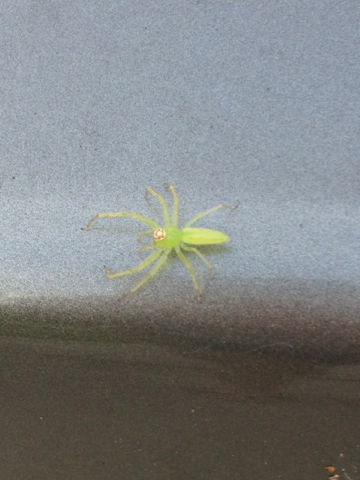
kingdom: Animalia
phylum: Arthropoda
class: Arachnida
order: Araneae
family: Salticidae
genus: Lyssomanes
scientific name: Lyssomanes viridis
